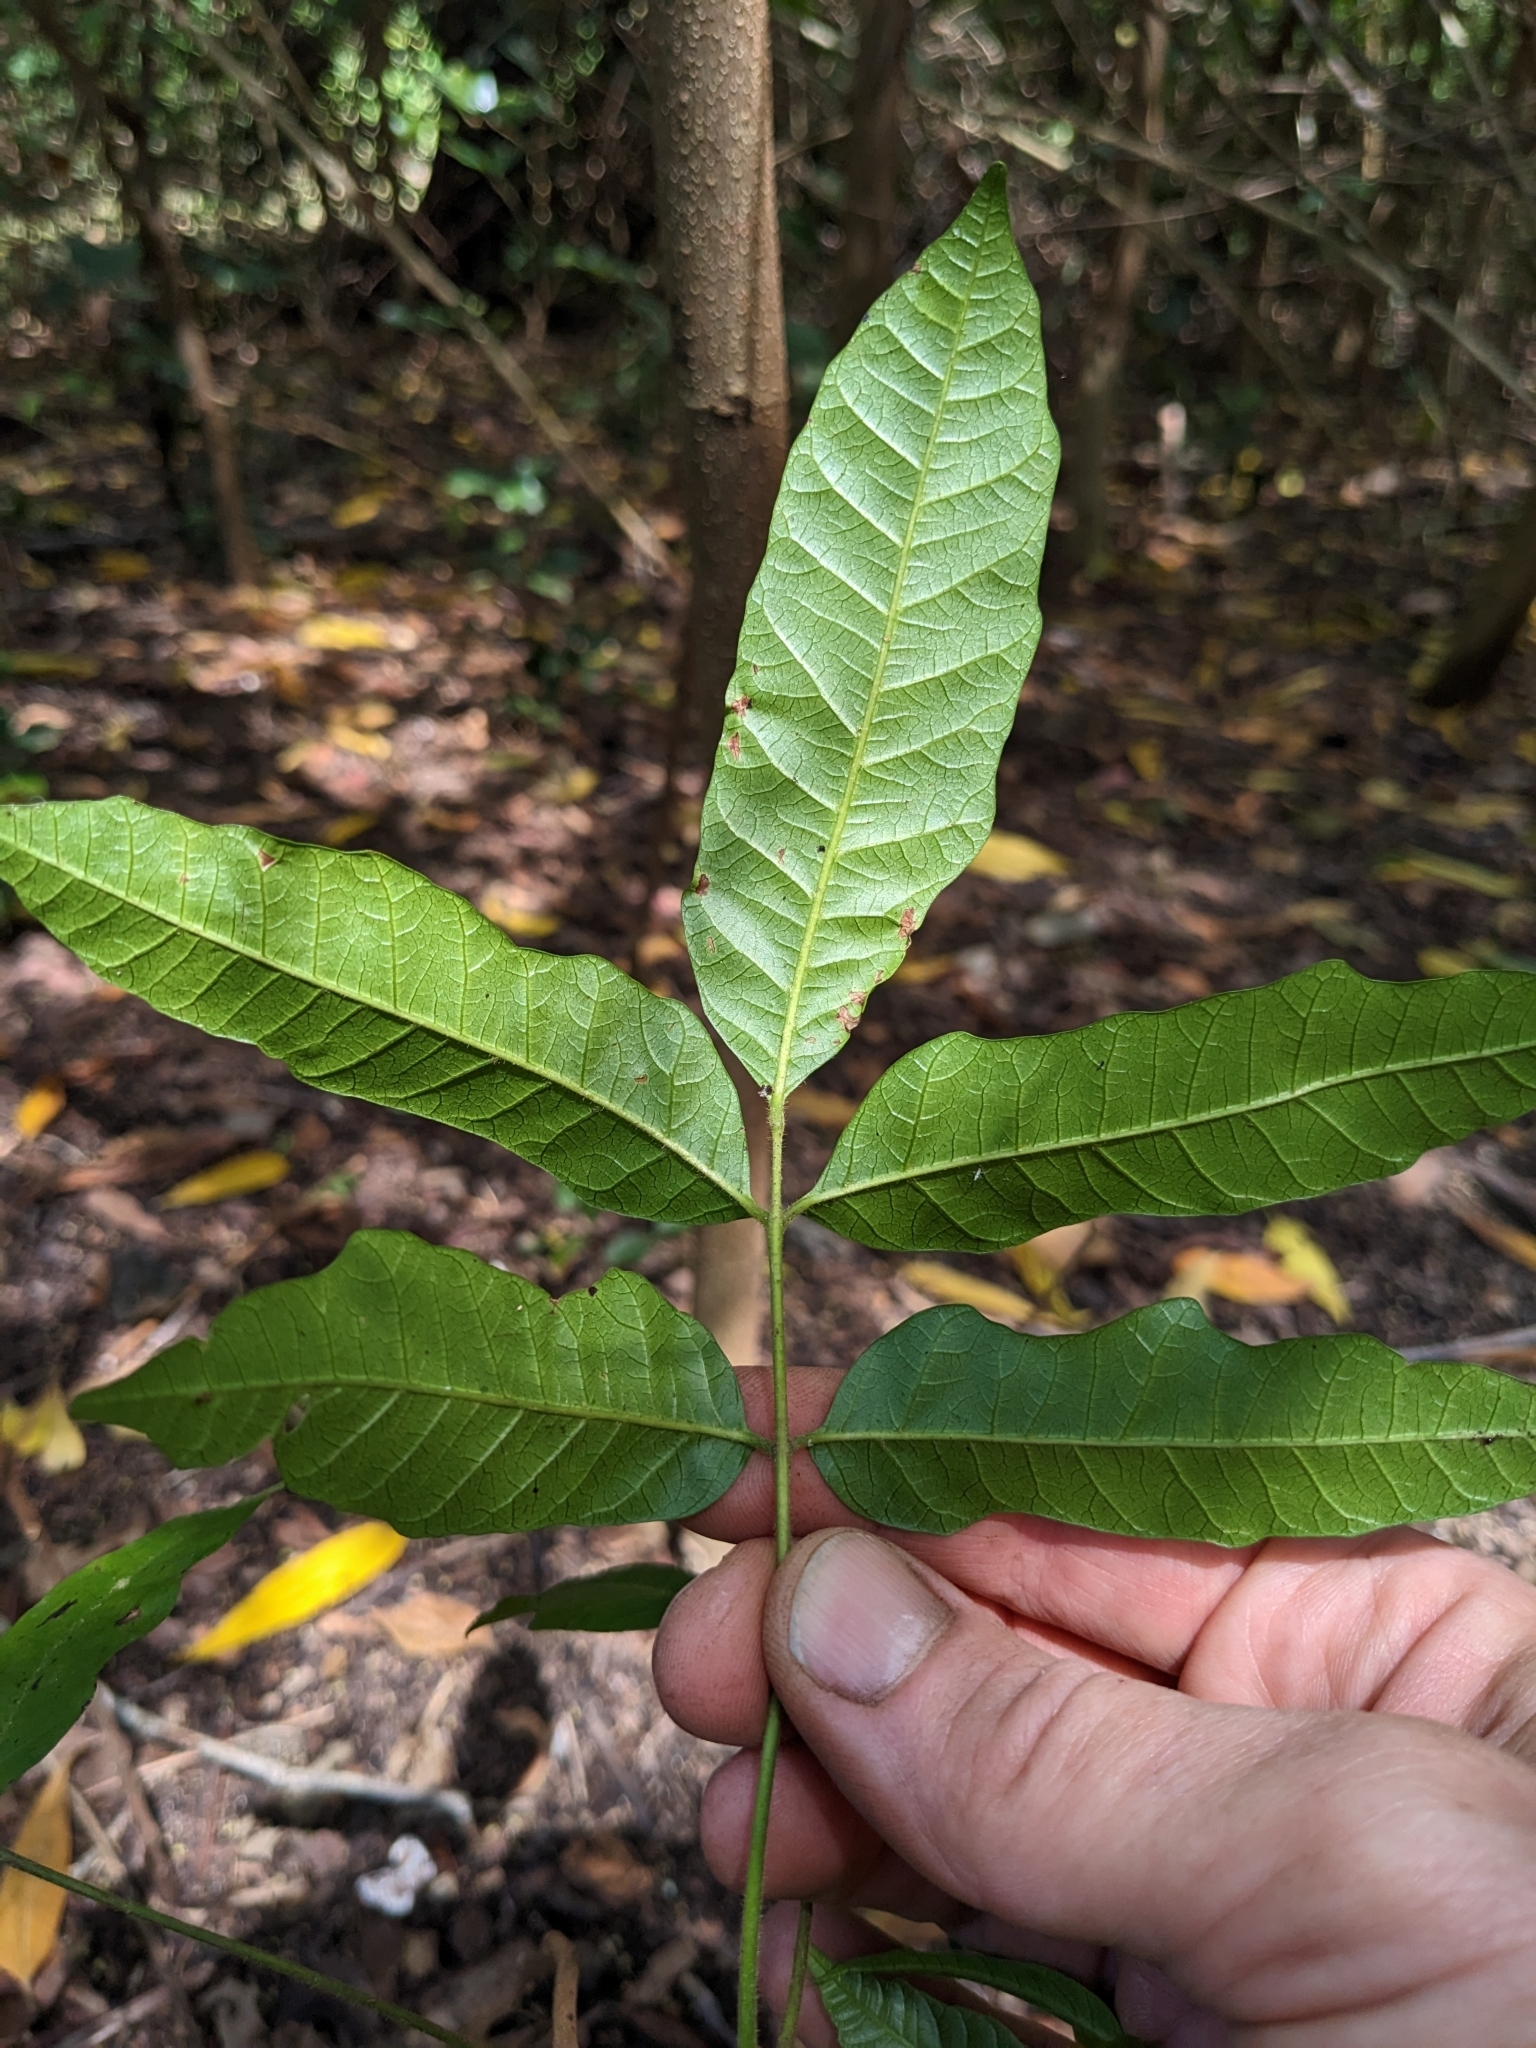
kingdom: Plantae
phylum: Tracheophyta
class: Magnoliopsida
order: Sapindales
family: Anacardiaceae
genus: Rhodosphaera
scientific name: Rhodosphaera rhodanthema
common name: Tulip satinwood
